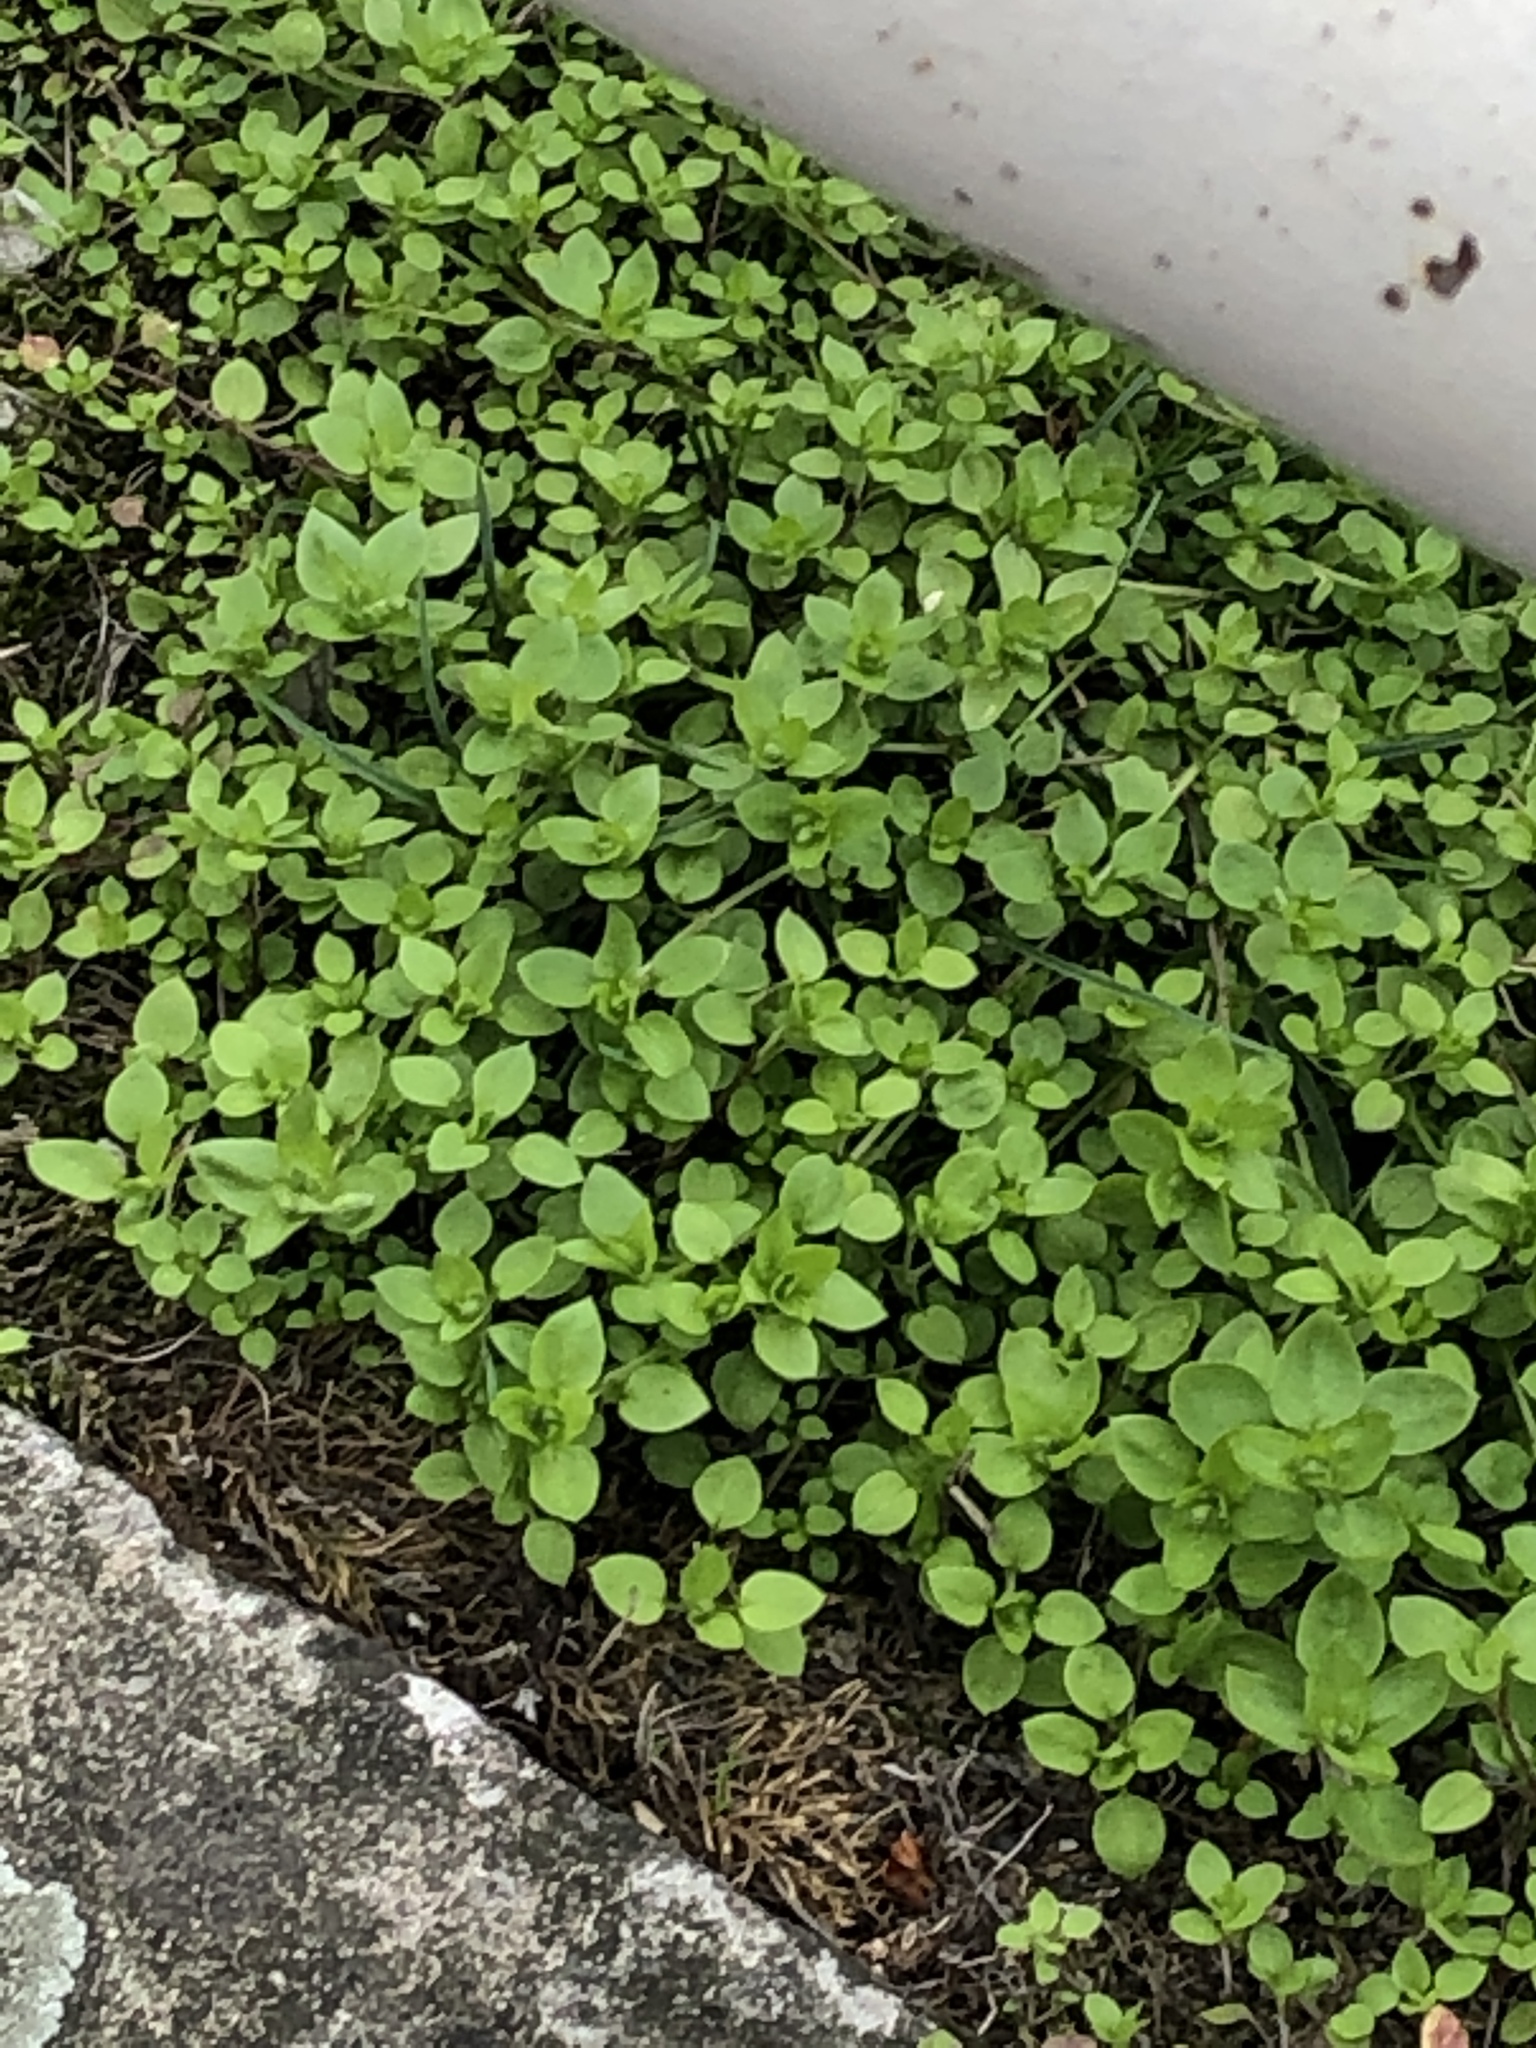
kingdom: Plantae
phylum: Tracheophyta
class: Magnoliopsida
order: Caryophyllales
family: Caryophyllaceae
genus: Stellaria
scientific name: Stellaria media
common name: Common chickweed
